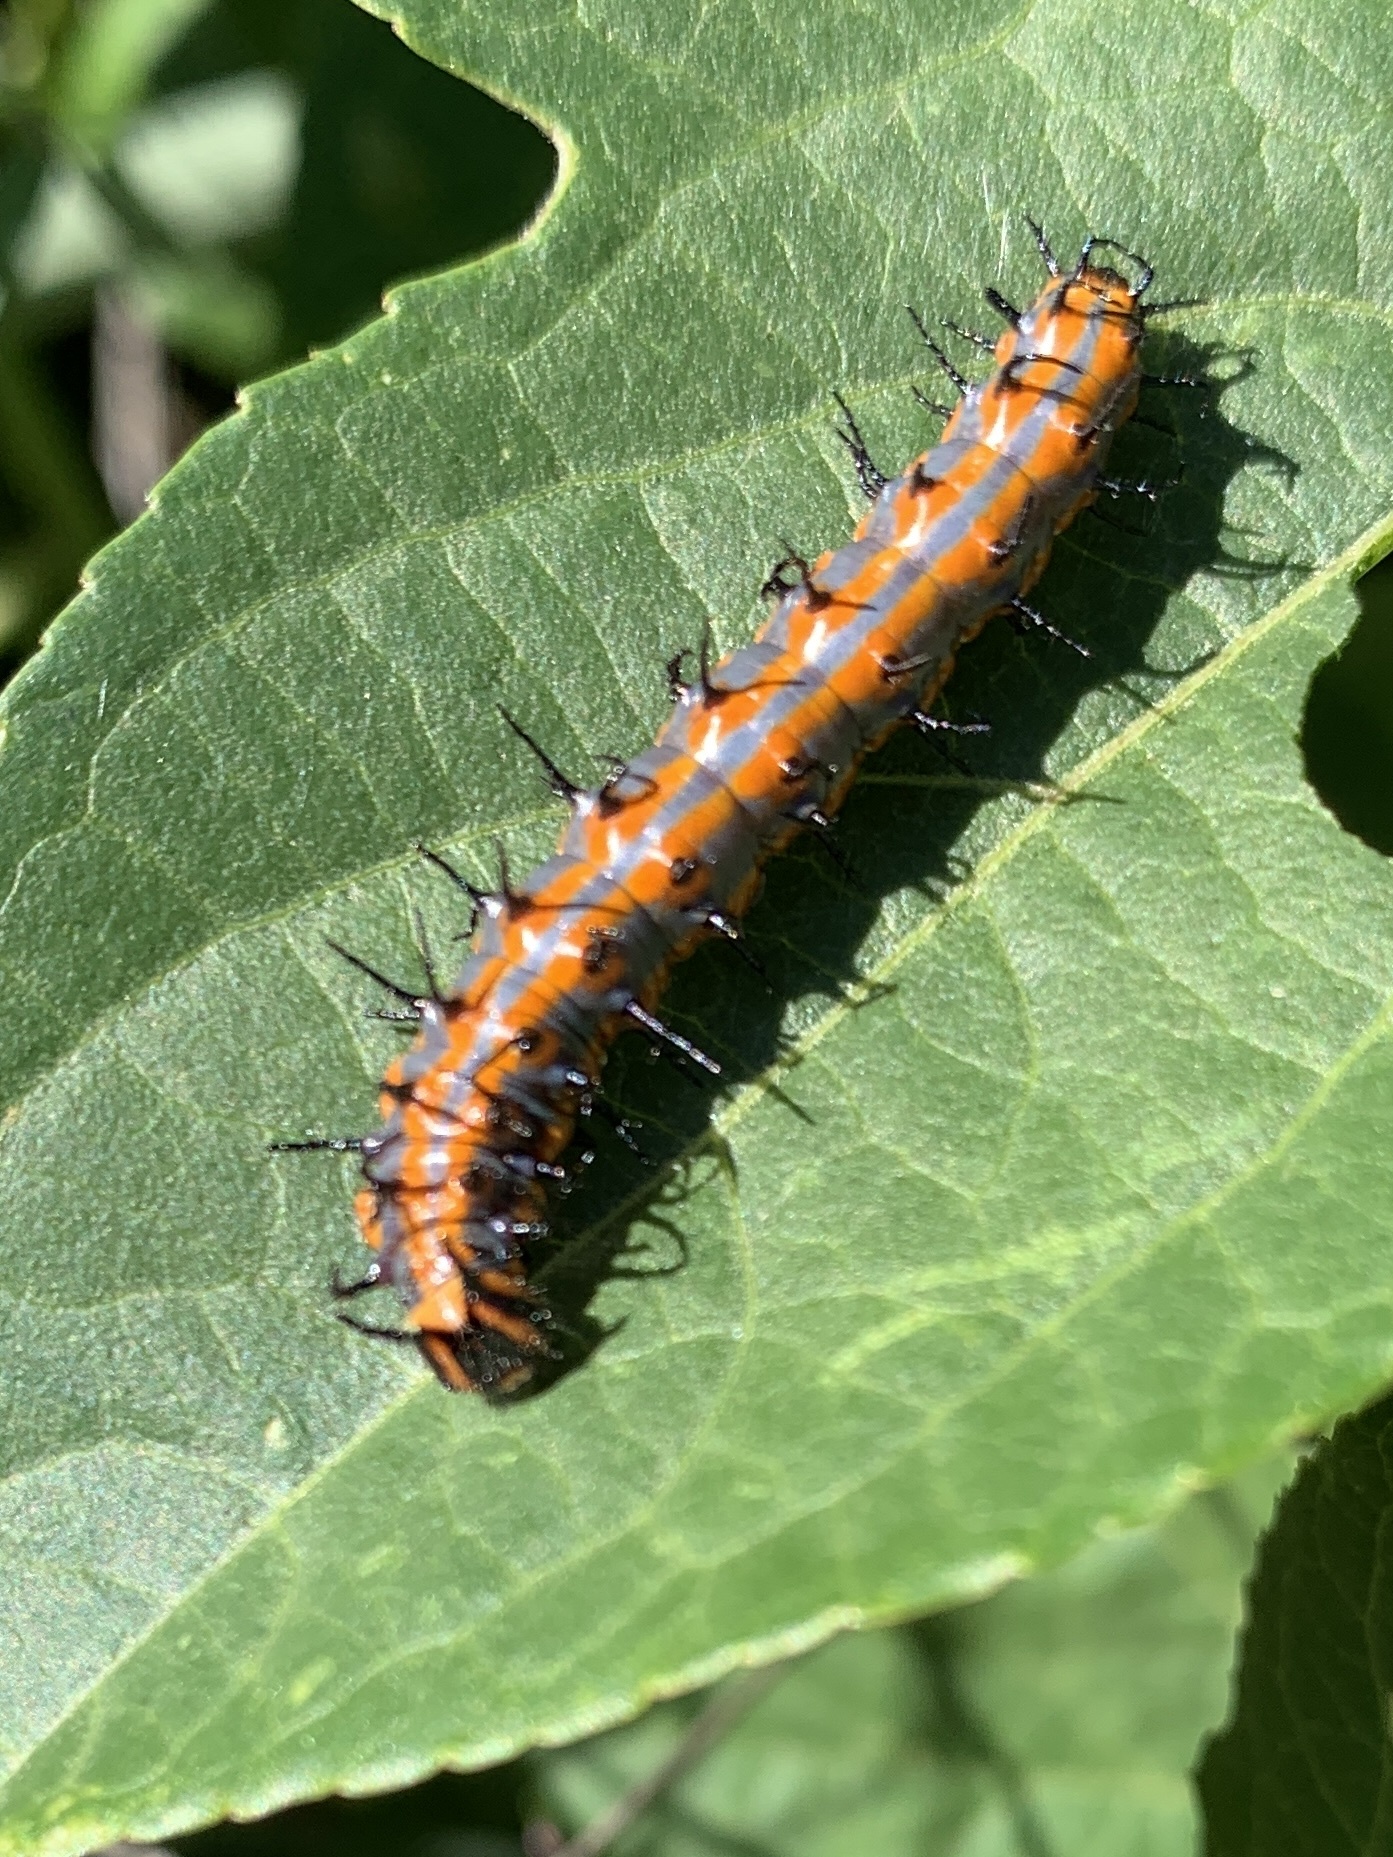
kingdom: Animalia
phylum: Arthropoda
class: Insecta
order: Lepidoptera
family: Nymphalidae
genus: Dione
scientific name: Dione vanillae
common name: Gulf fritillary
